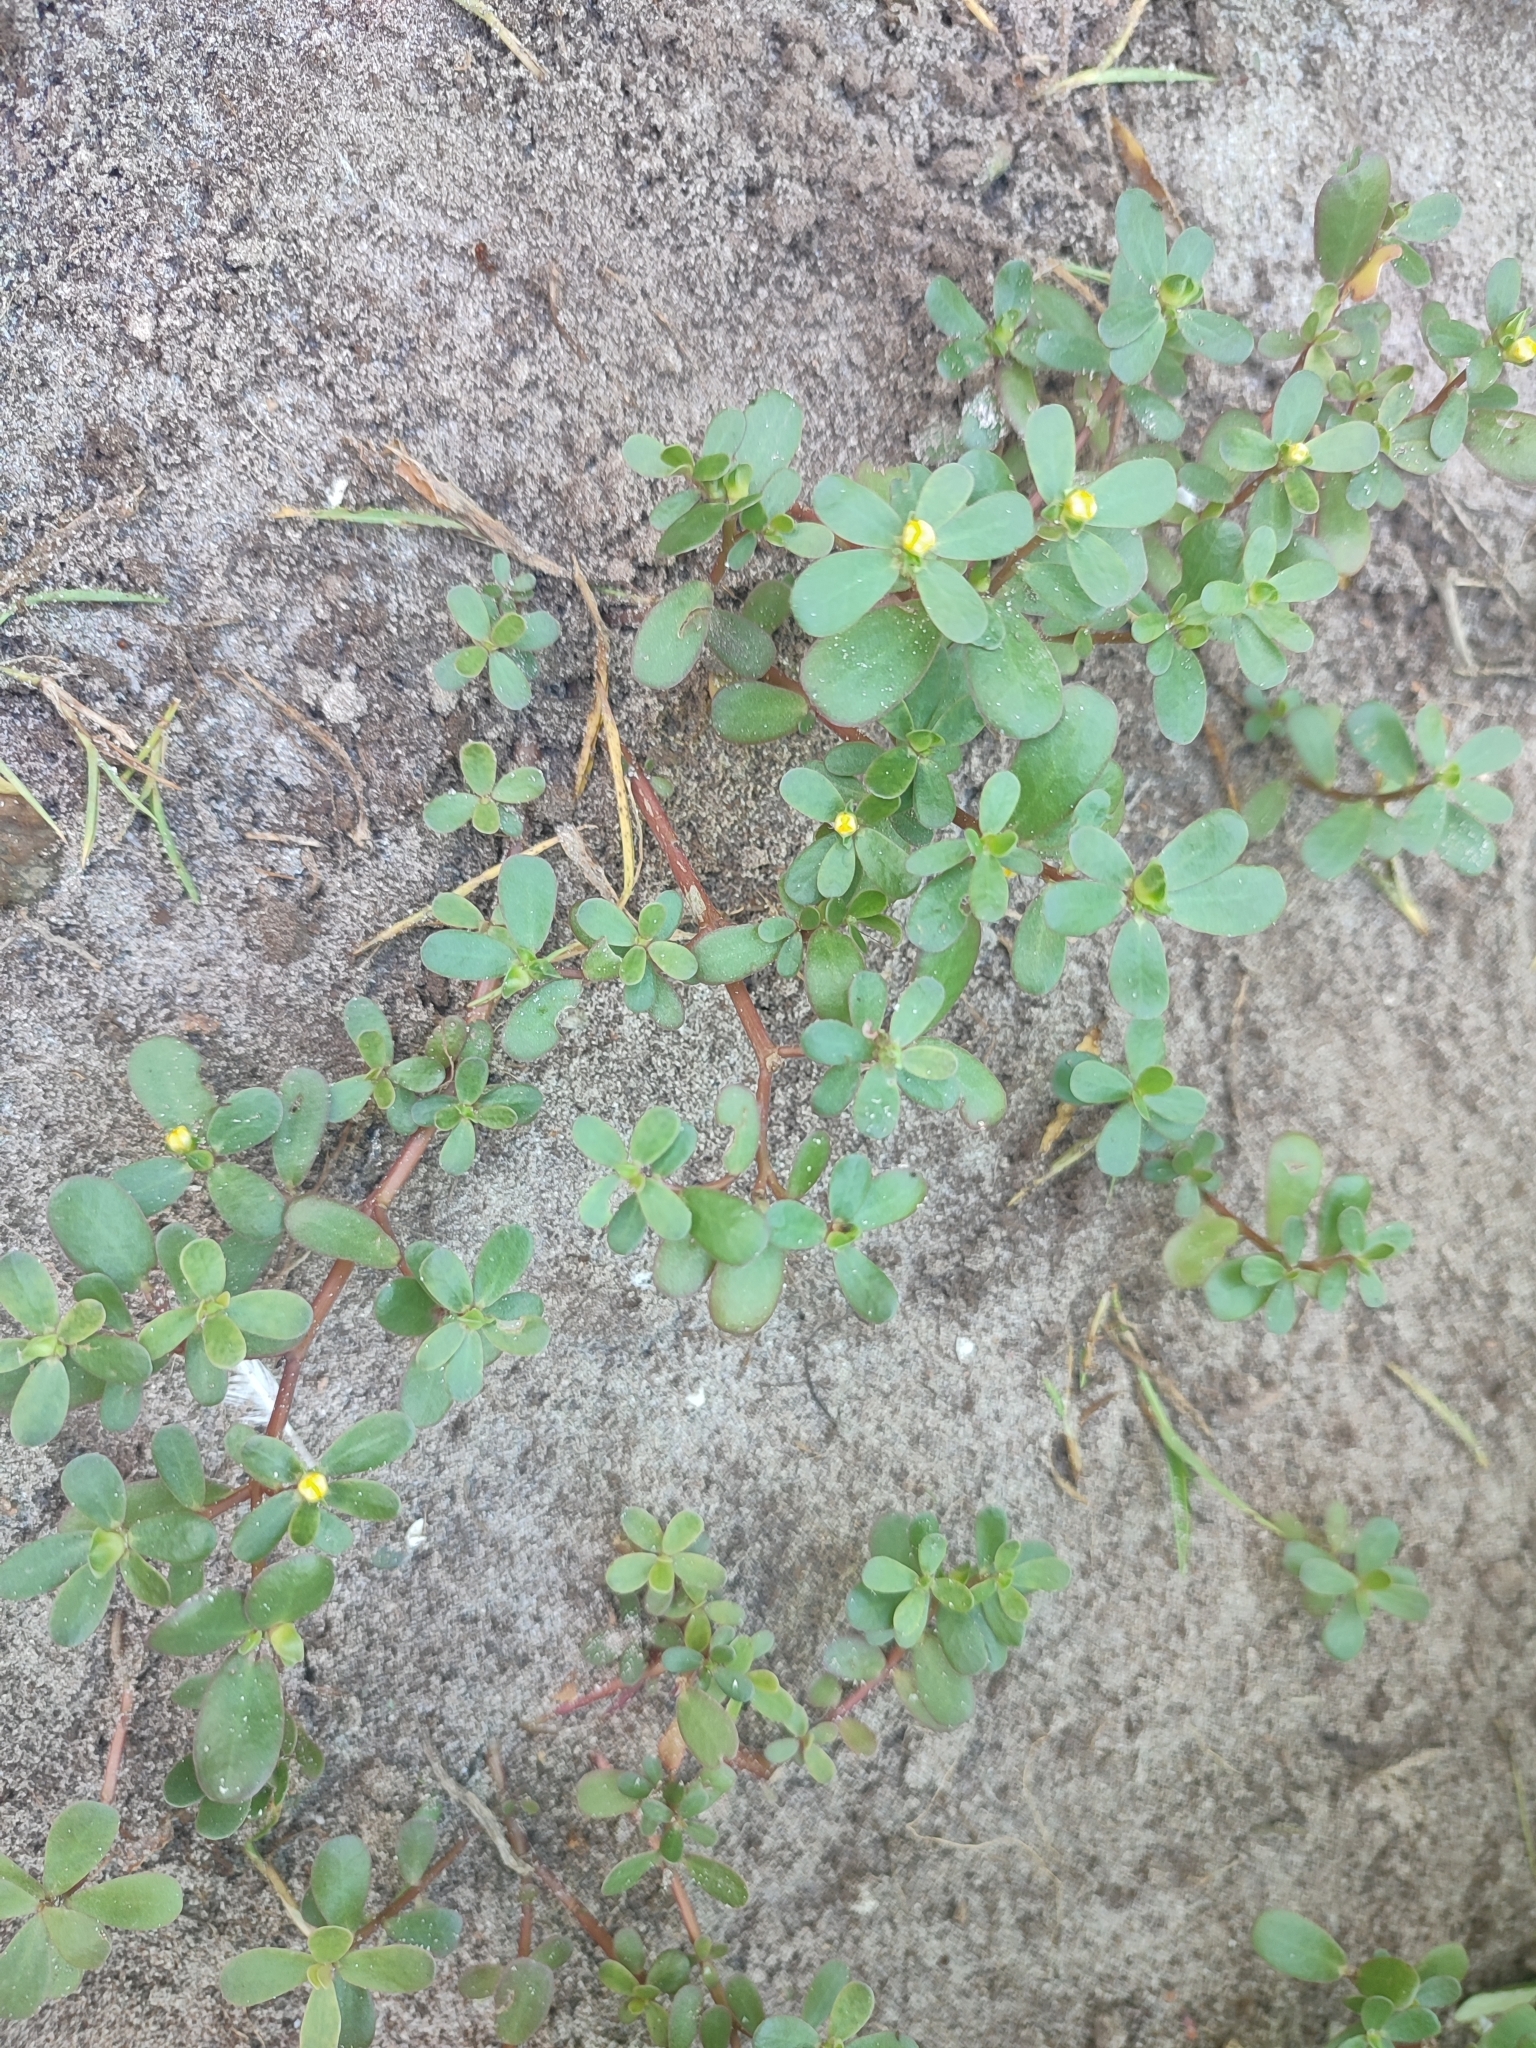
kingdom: Plantae
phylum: Tracheophyta
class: Magnoliopsida
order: Caryophyllales
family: Portulacaceae
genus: Portulaca
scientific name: Portulaca oleracea
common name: Common purslane
